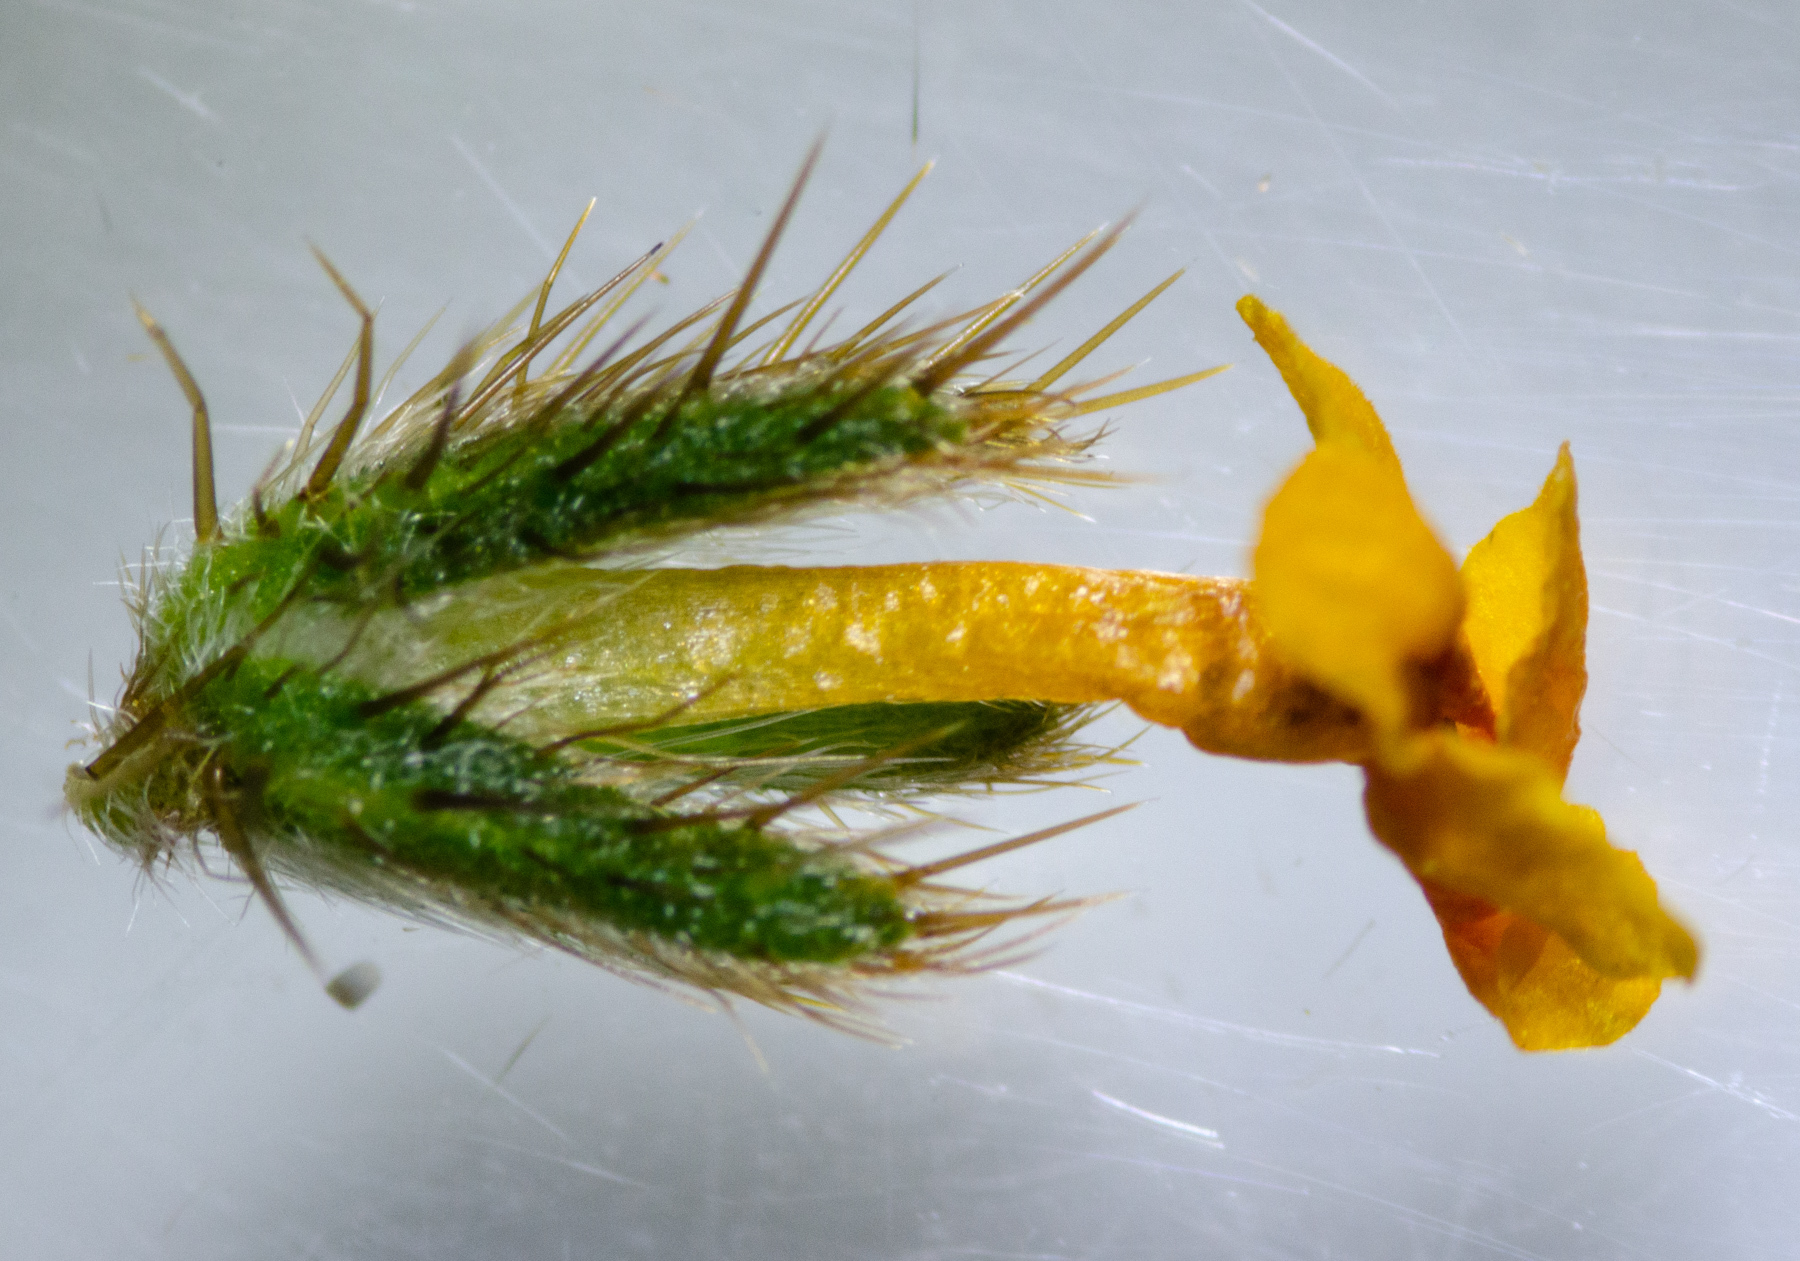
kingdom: Plantae
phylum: Tracheophyta
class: Magnoliopsida
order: Boraginales
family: Boraginaceae
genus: Amsinckia
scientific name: Amsinckia lunaris
